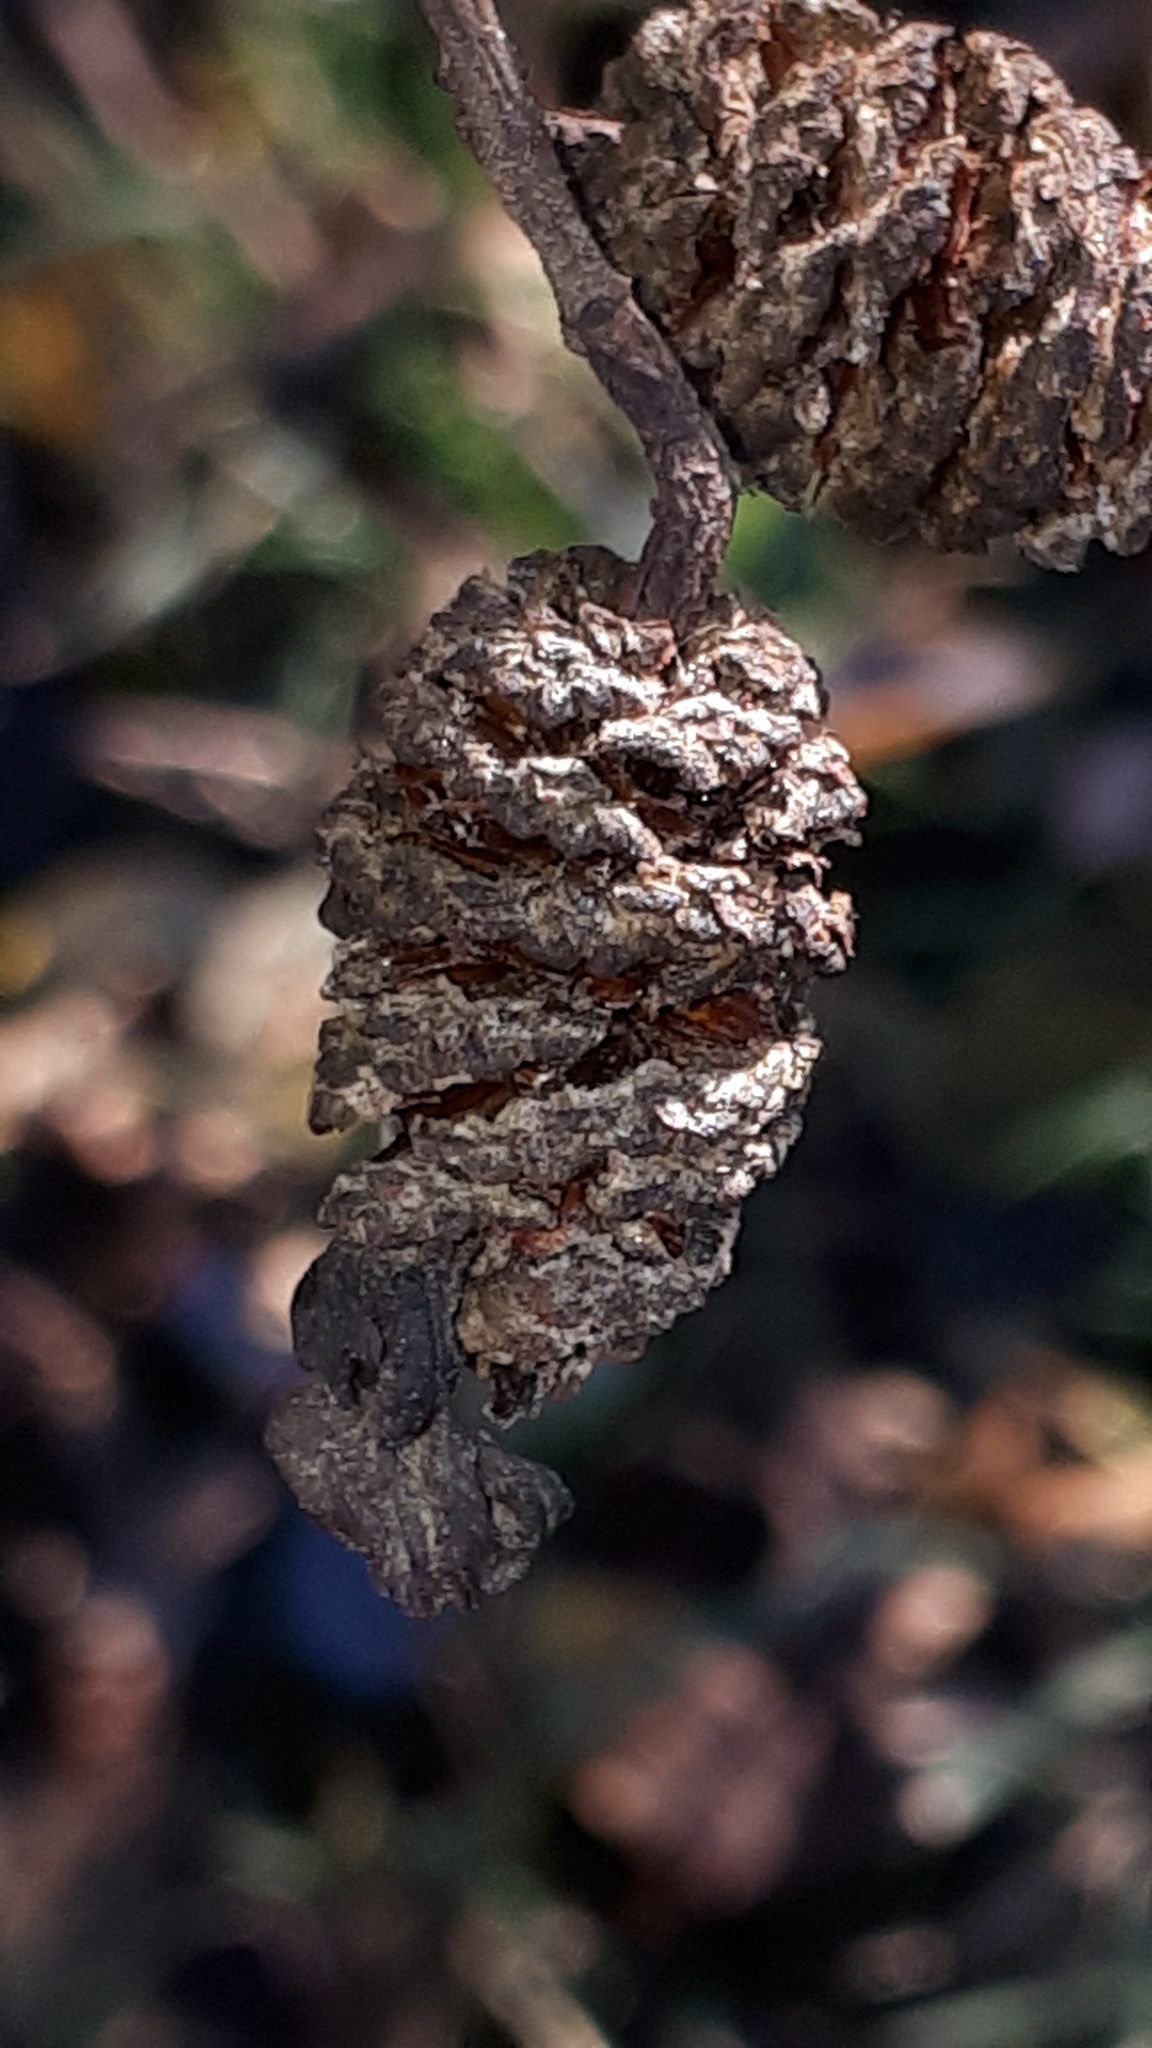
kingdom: Fungi
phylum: Ascomycota
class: Taphrinomycetes
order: Taphrinales
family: Taphrinaceae
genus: Taphrina
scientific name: Taphrina alni
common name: Alder tongue
